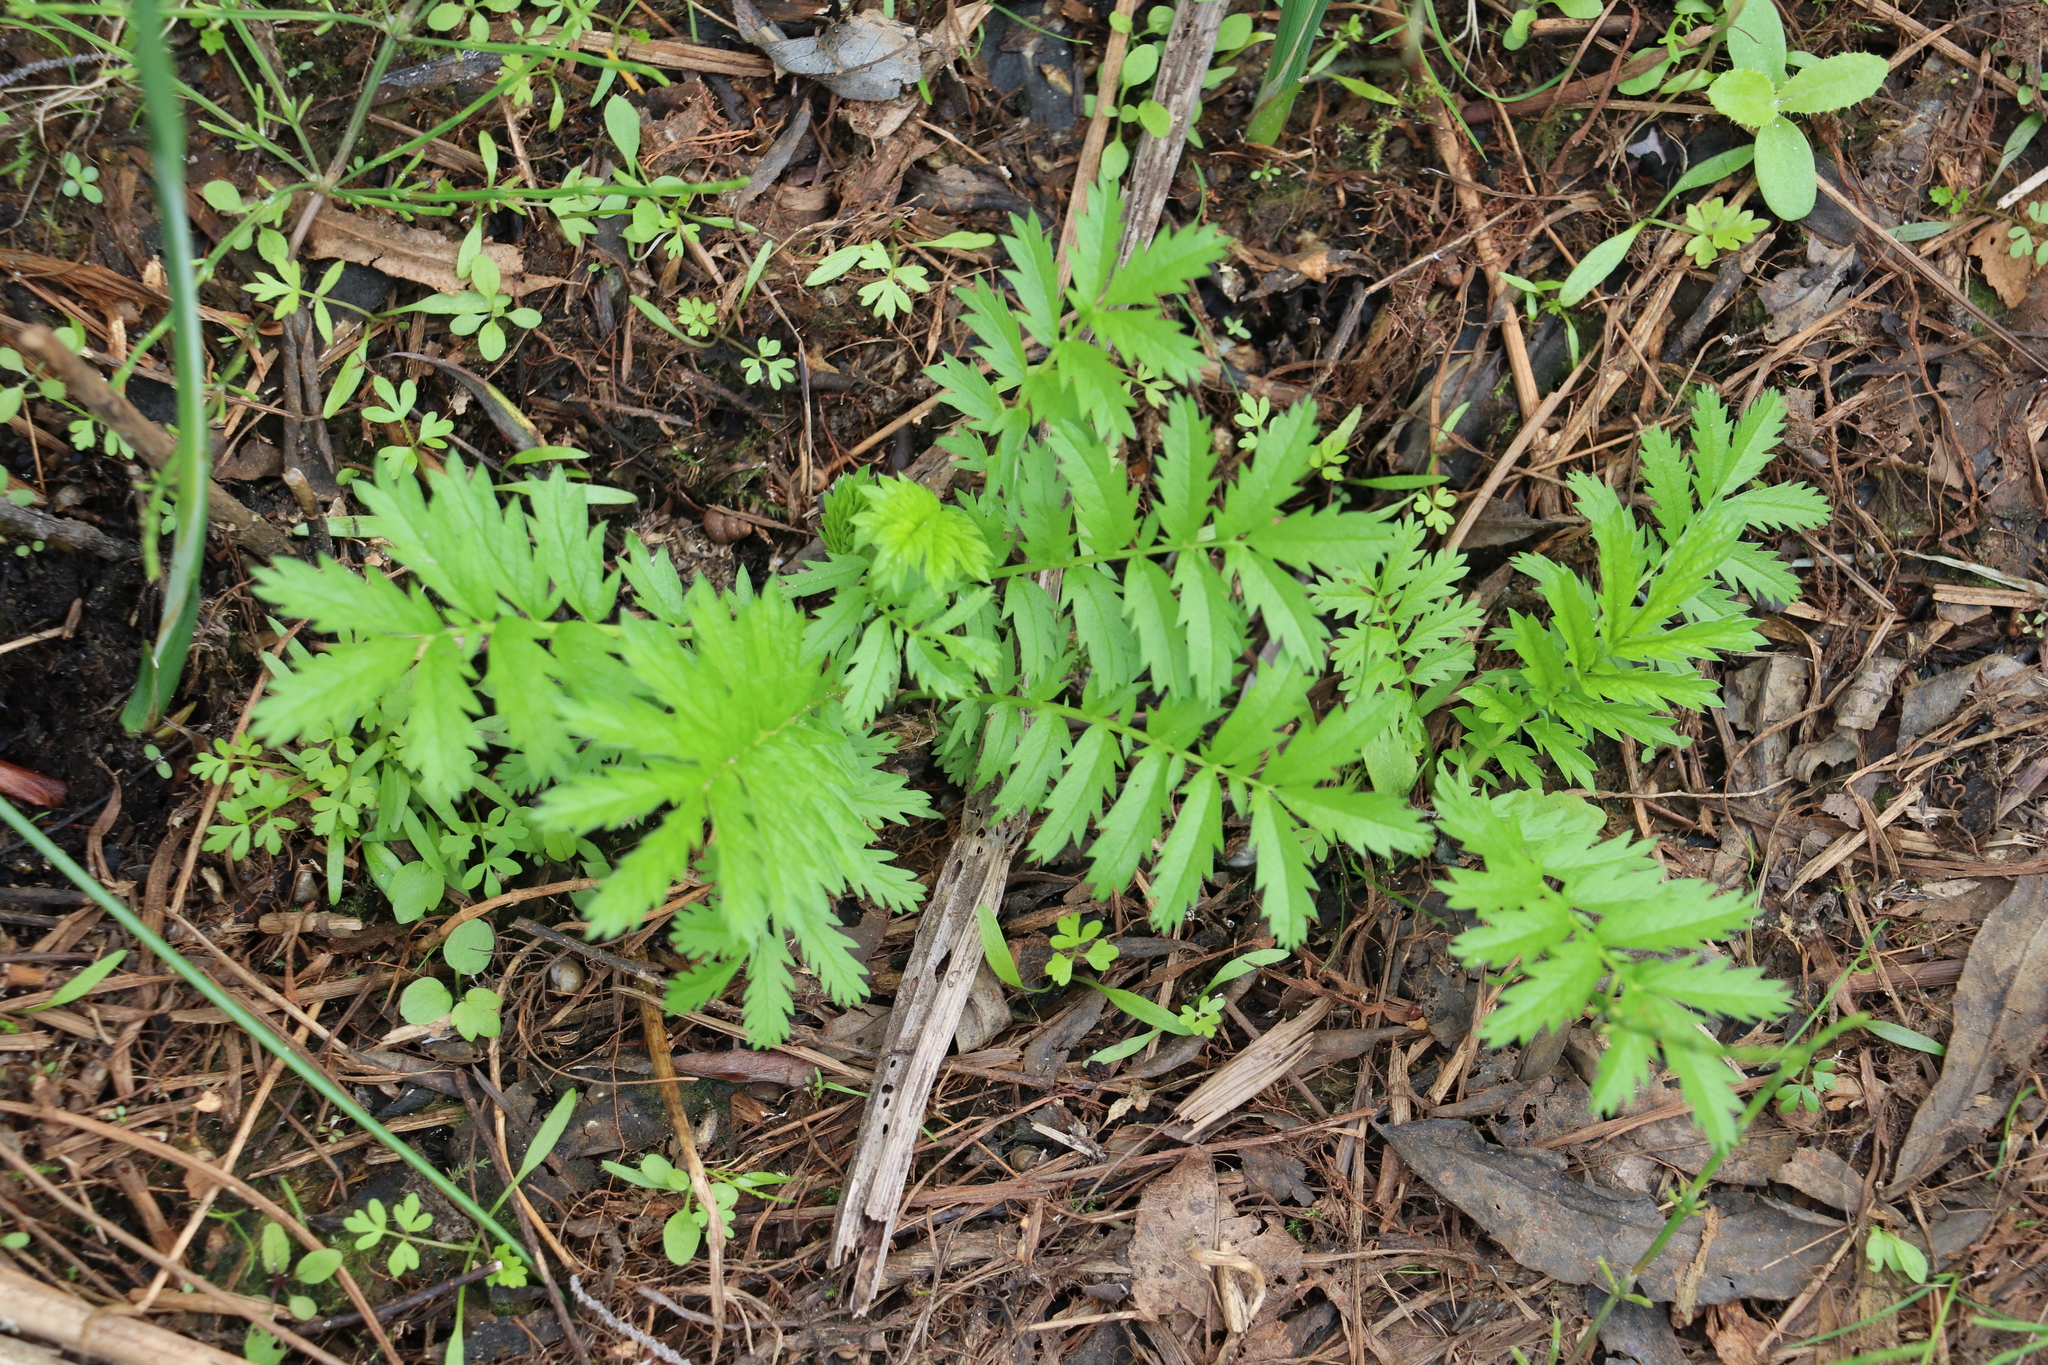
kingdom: Plantae
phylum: Tracheophyta
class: Magnoliopsida
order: Rosales
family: Rosaceae
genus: Argentina
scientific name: Argentina anserina
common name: Common silverweed
